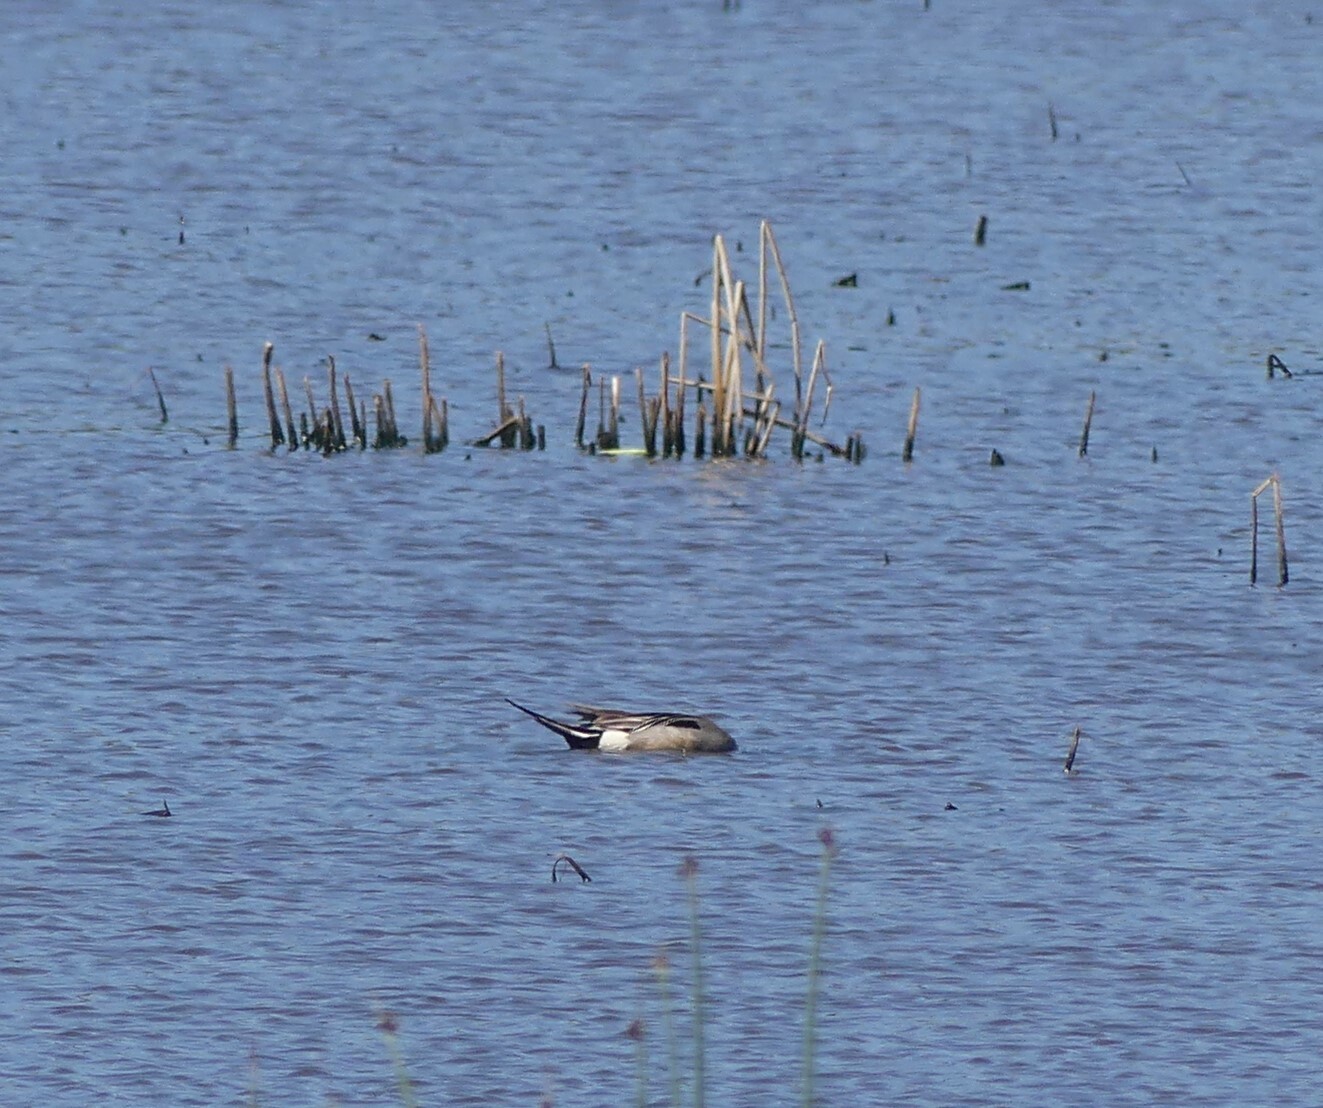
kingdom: Animalia
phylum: Chordata
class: Aves
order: Anseriformes
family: Anatidae
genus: Anas
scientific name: Anas acuta
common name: Northern pintail
